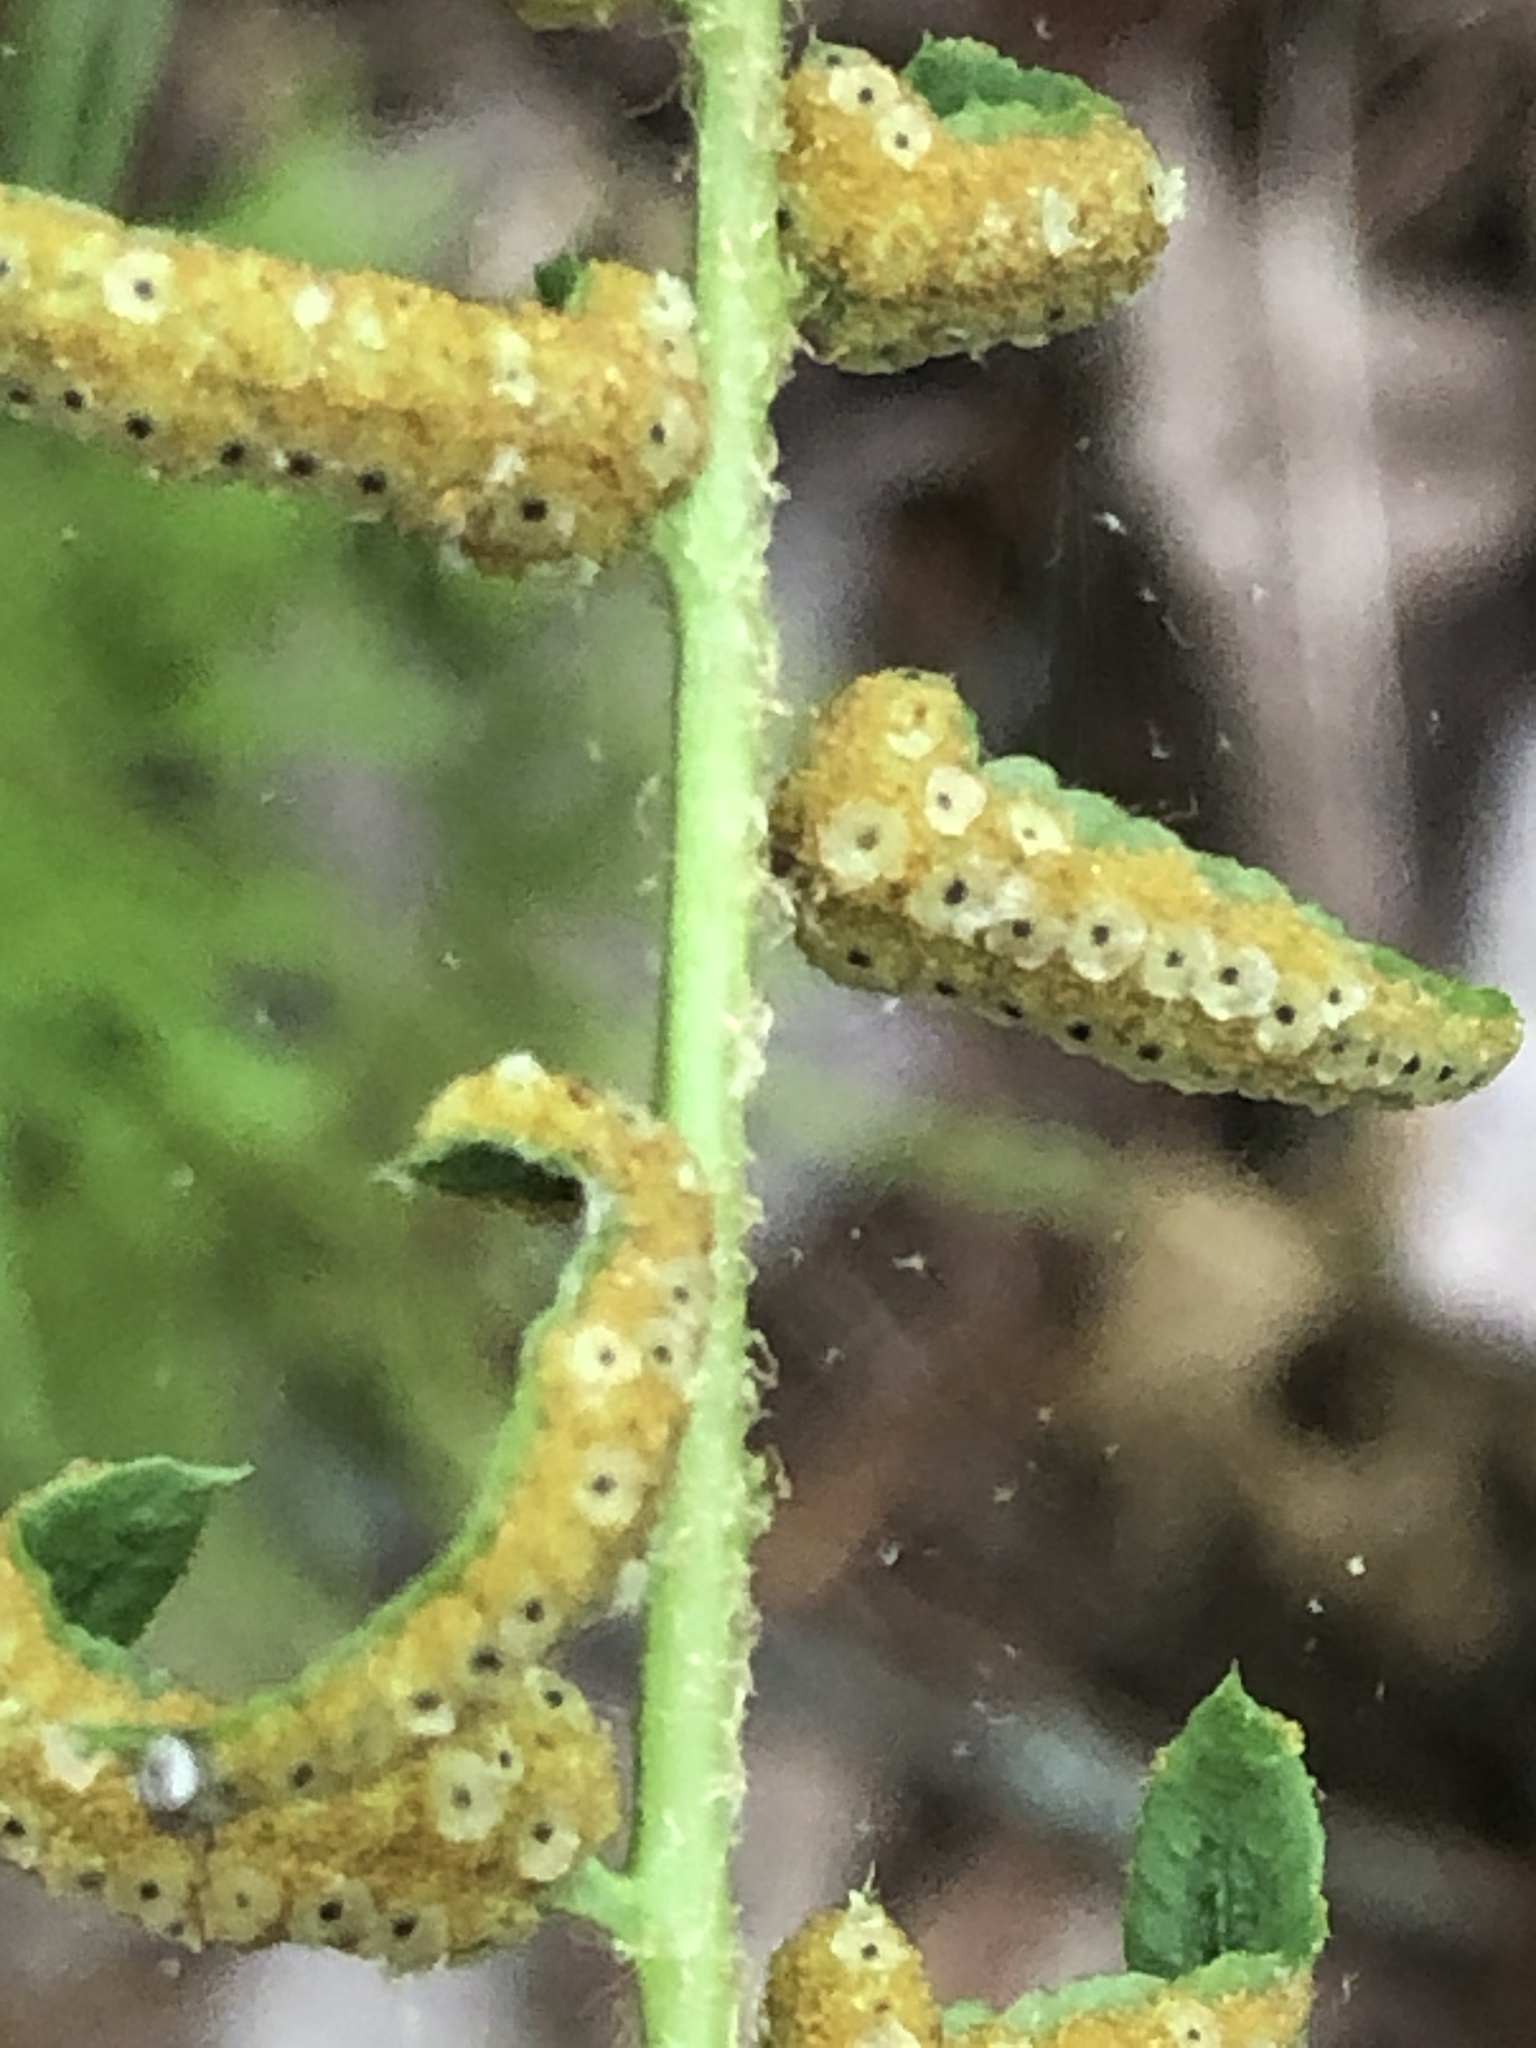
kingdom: Plantae
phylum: Tracheophyta
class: Polypodiopsida
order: Polypodiales
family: Dryopteridaceae
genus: Polystichum
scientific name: Polystichum acrostichoides
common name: Christmas fern
